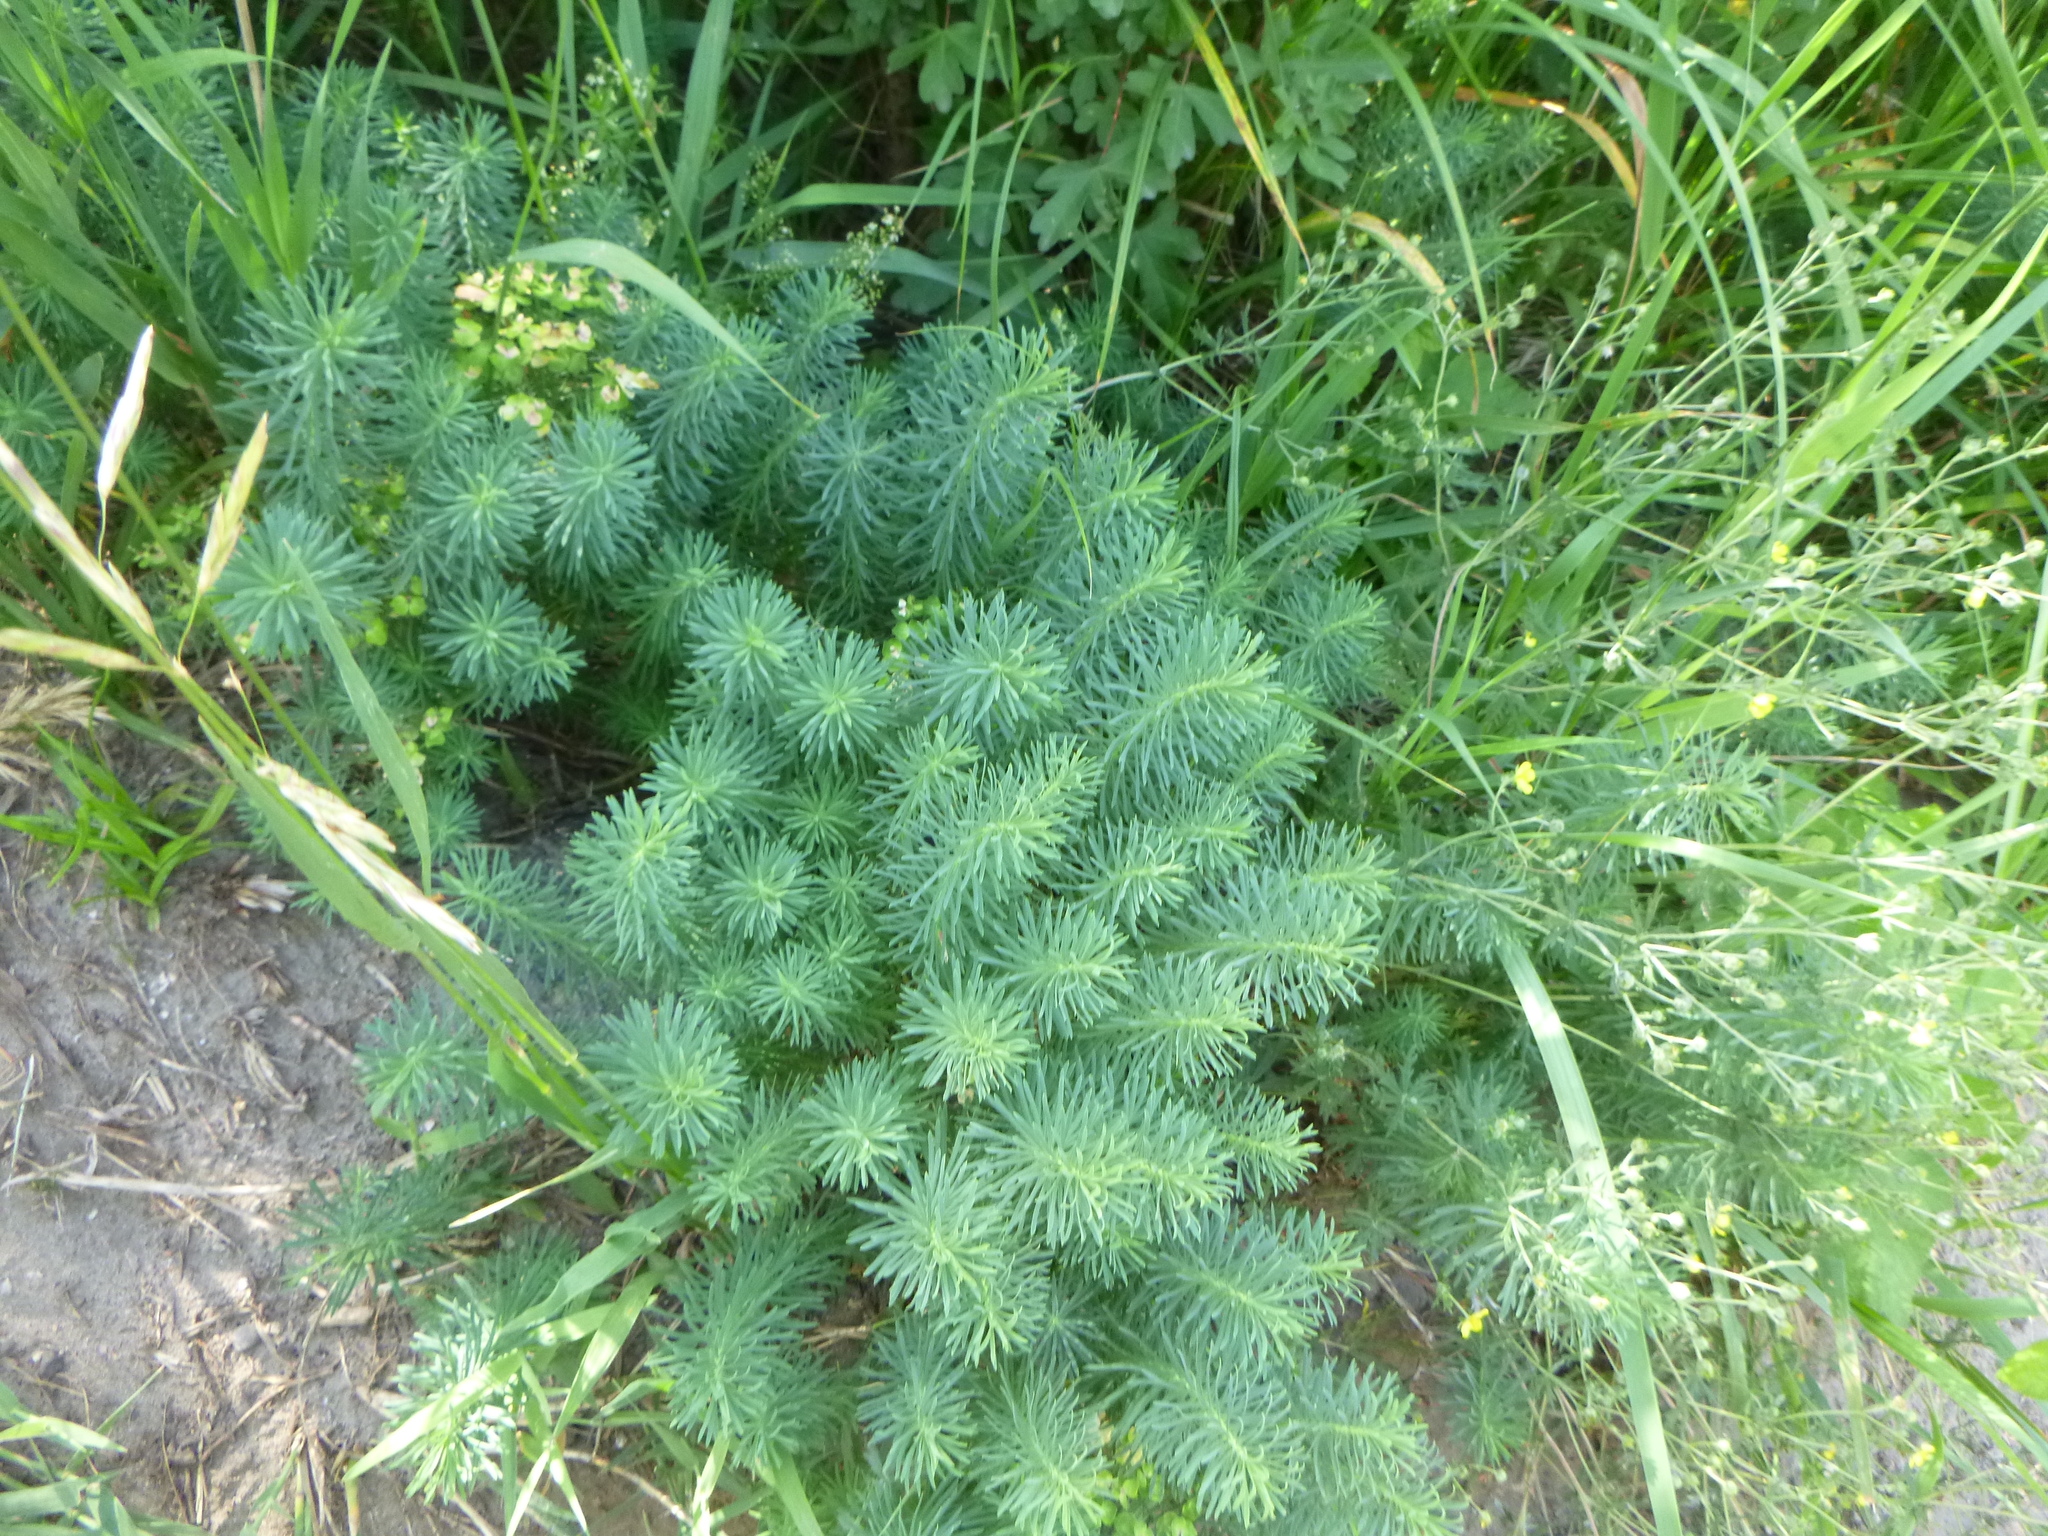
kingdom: Plantae
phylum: Tracheophyta
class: Magnoliopsida
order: Malpighiales
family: Euphorbiaceae
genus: Euphorbia
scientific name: Euphorbia cyparissias
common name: Cypress spurge
